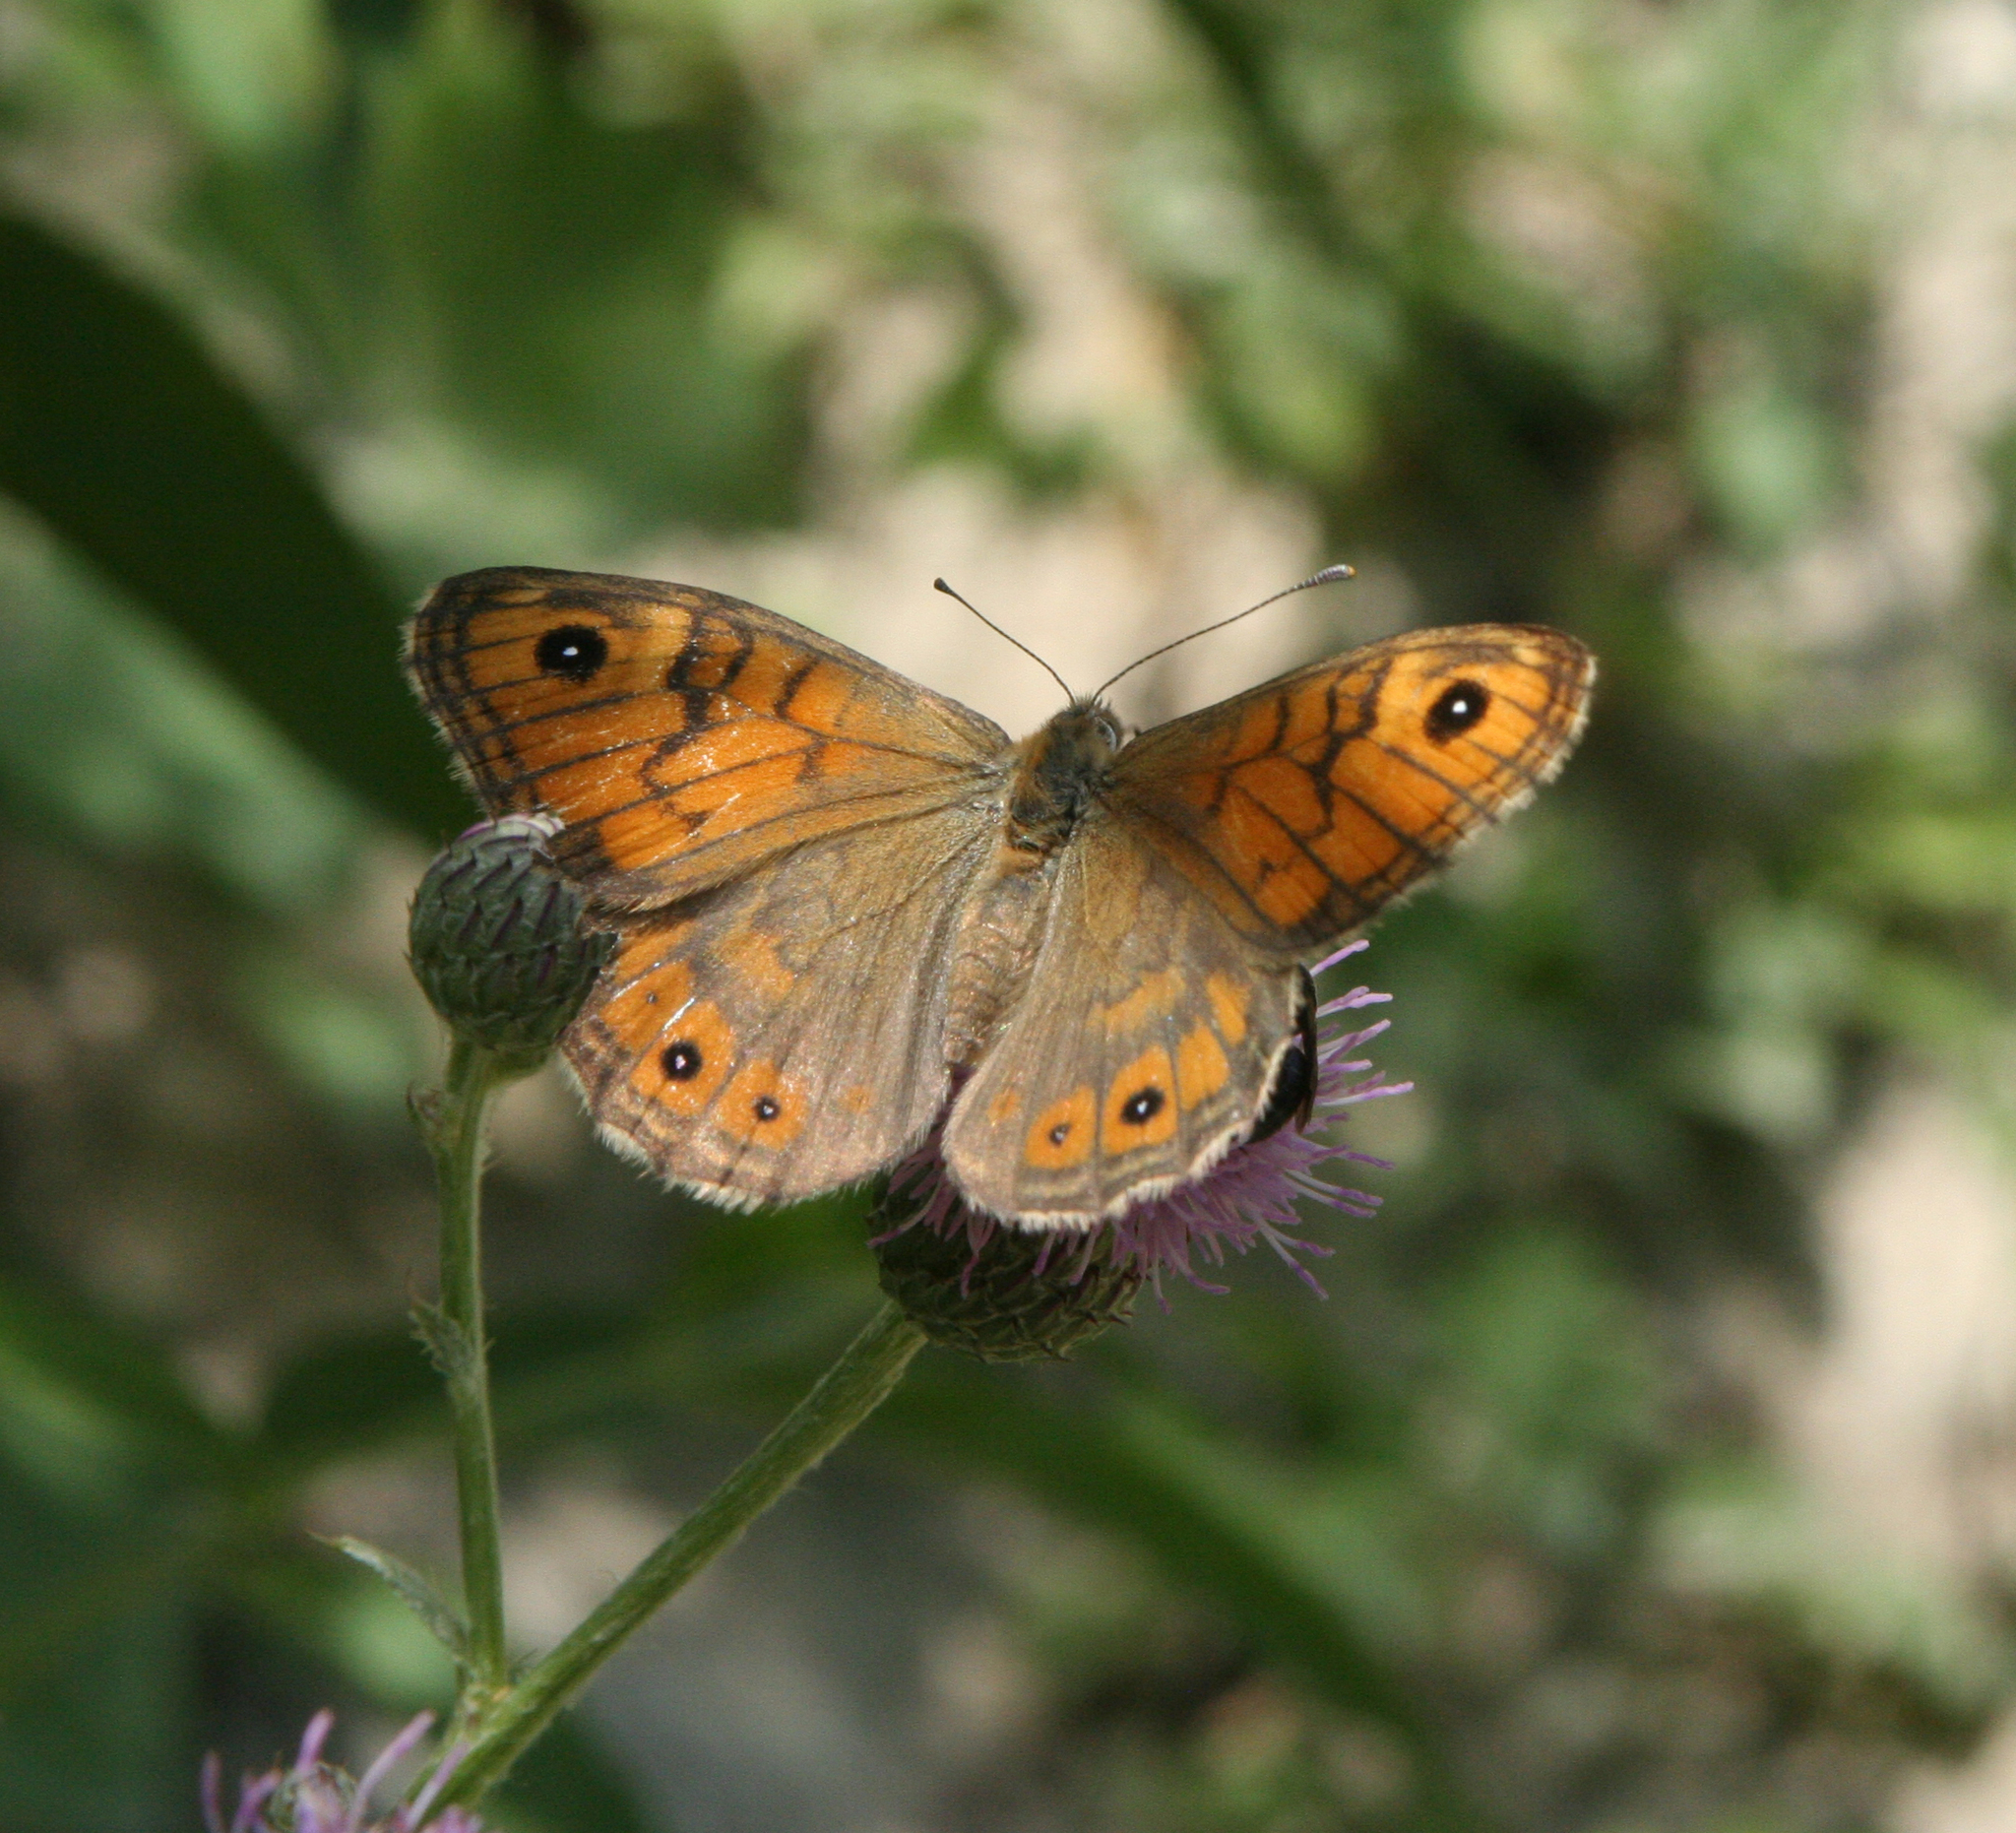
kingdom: Animalia
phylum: Arthropoda
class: Insecta
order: Lepidoptera
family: Nymphalidae
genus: Pararge
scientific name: Pararge Lasiommata megera
